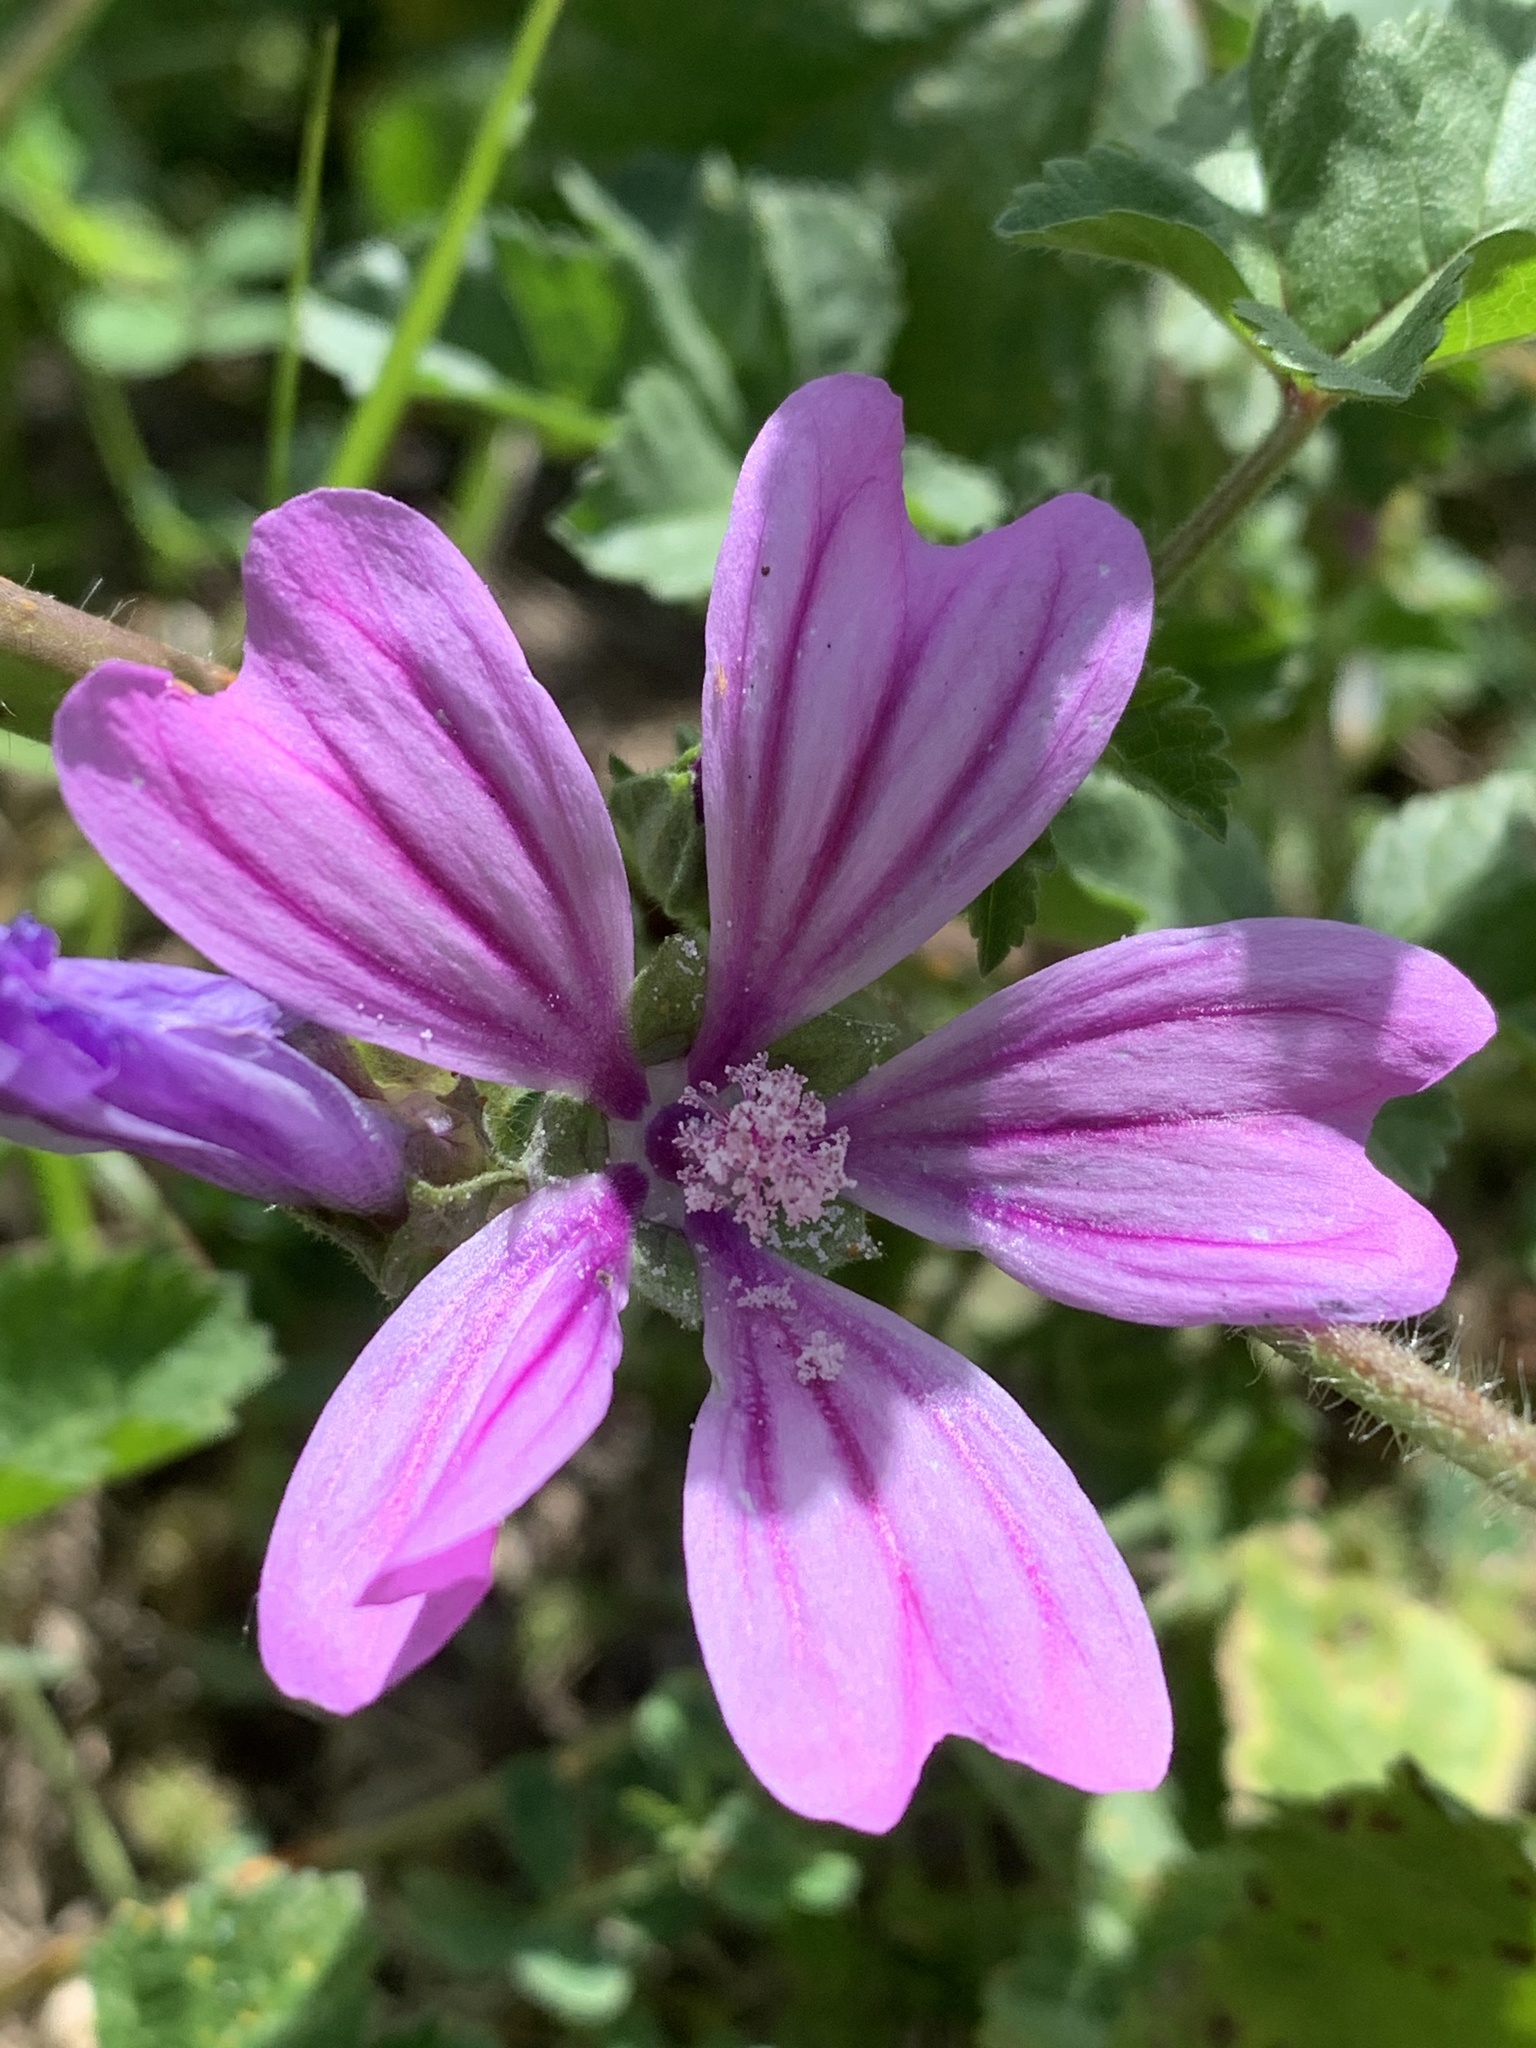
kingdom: Plantae
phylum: Tracheophyta
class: Magnoliopsida
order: Malvales
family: Malvaceae
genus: Malva
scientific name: Malva sylvestris
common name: Common mallow
